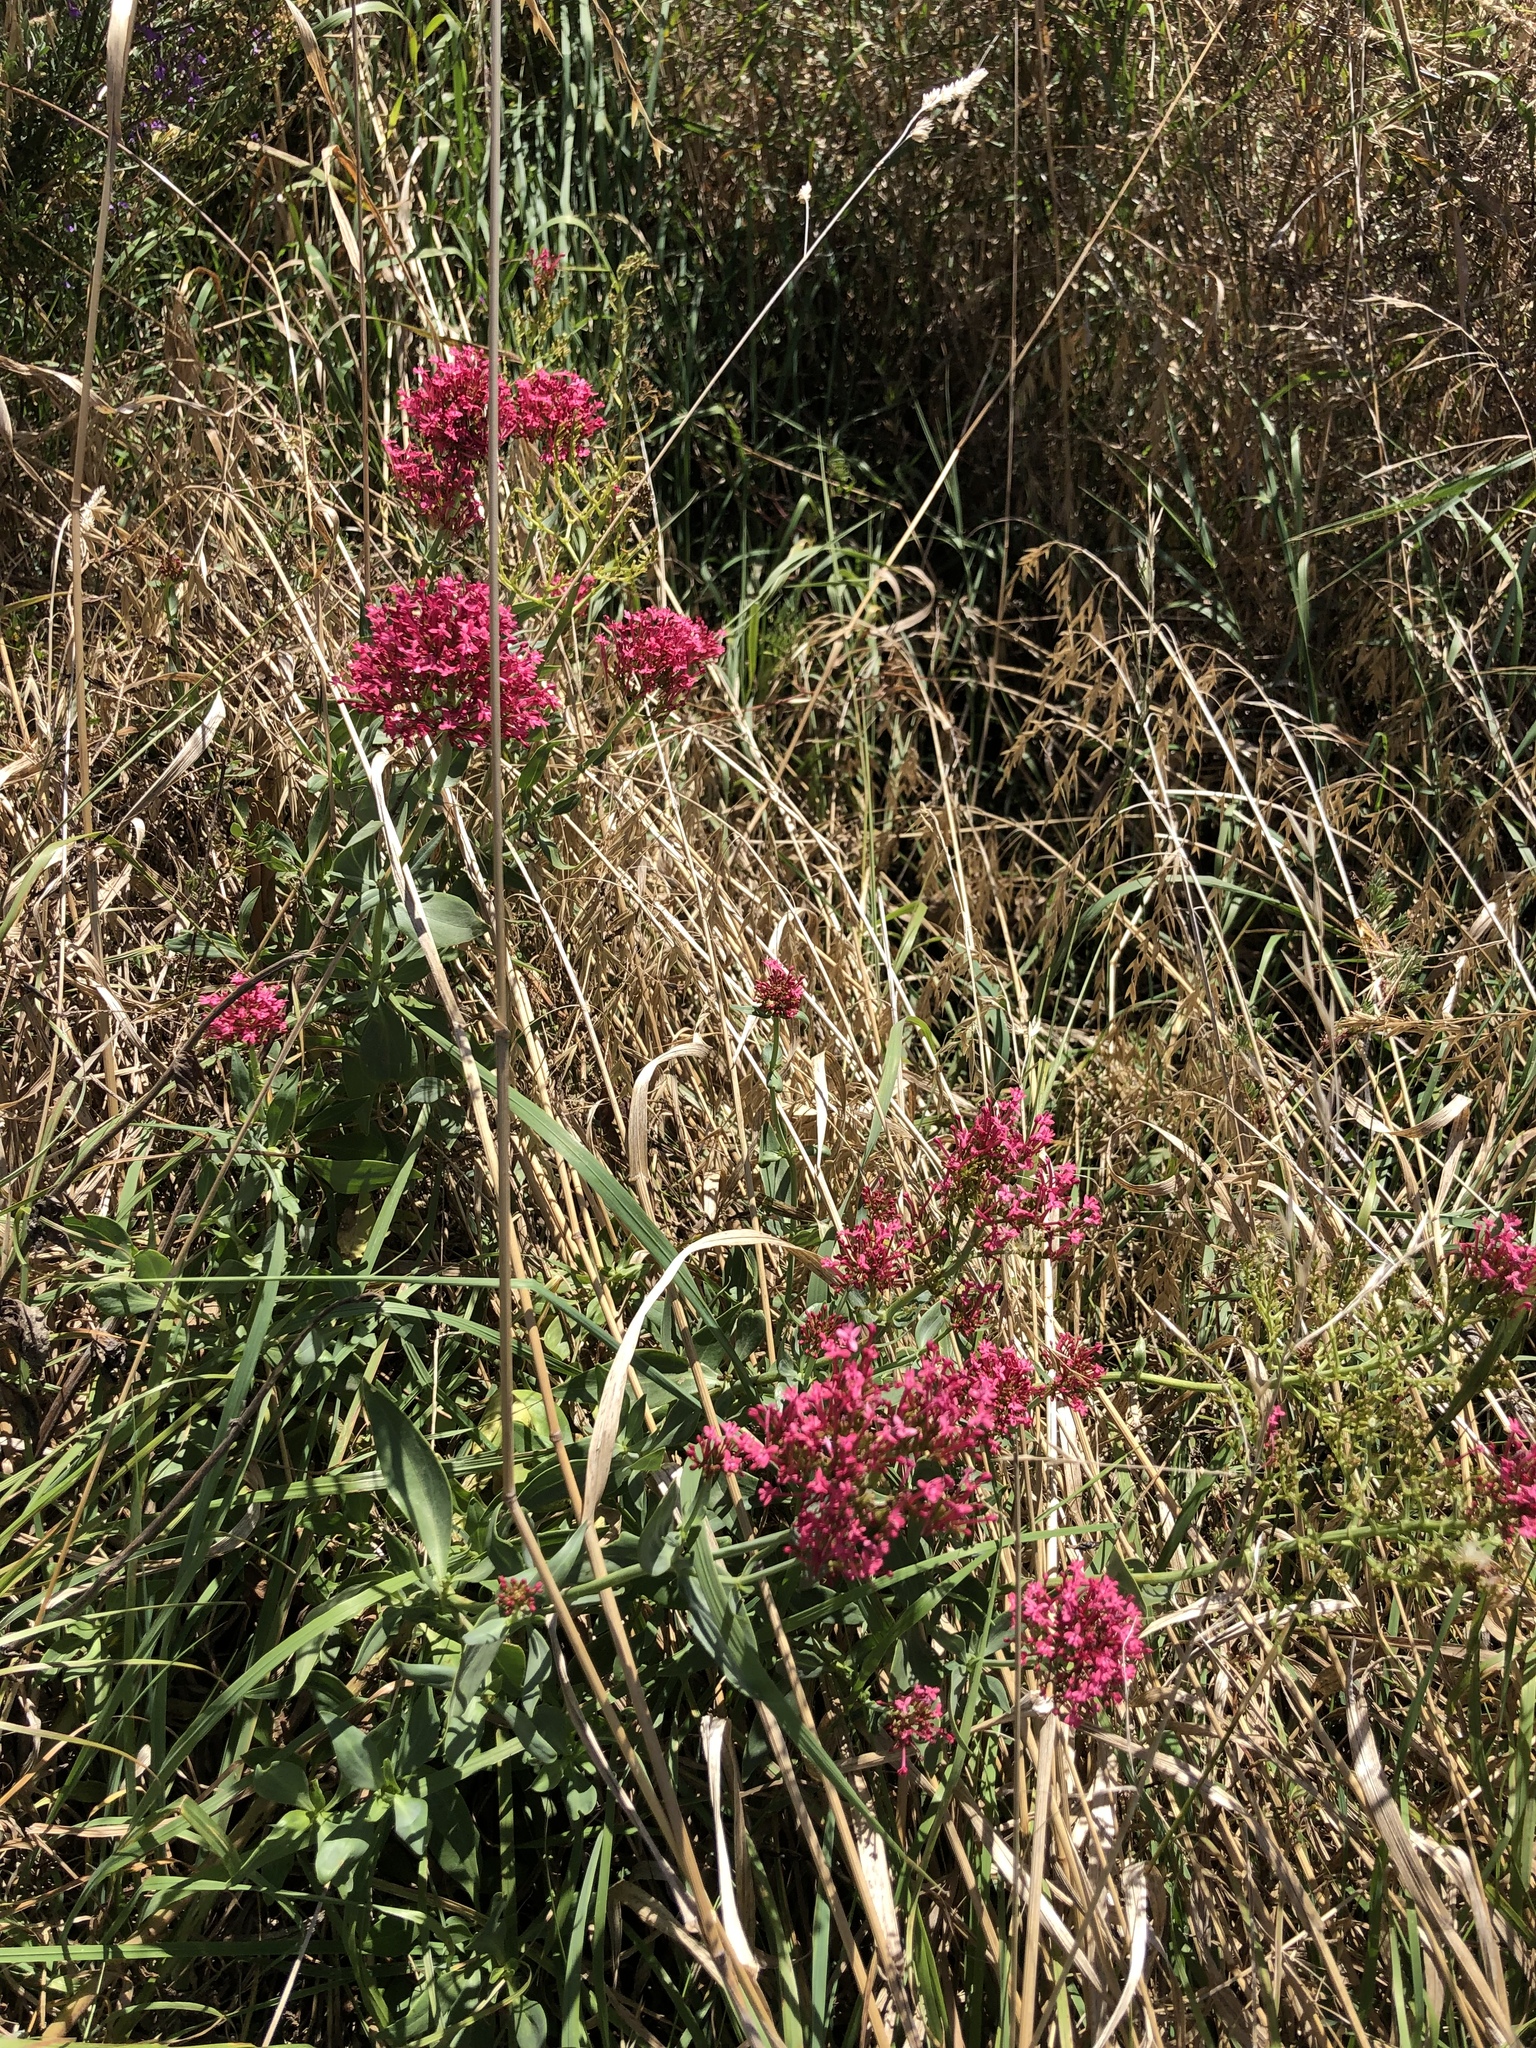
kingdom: Plantae
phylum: Tracheophyta
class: Magnoliopsida
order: Dipsacales
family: Caprifoliaceae
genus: Centranthus
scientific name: Centranthus ruber
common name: Red valerian
